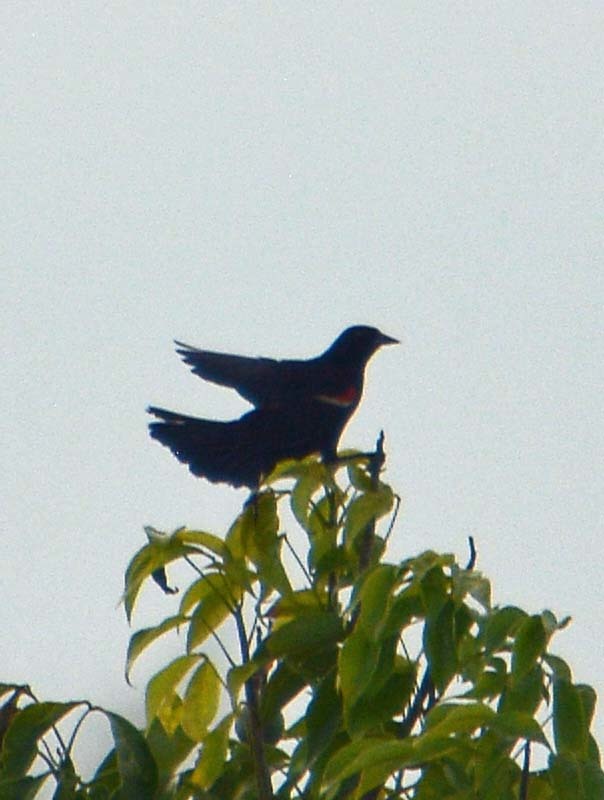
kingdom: Animalia
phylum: Chordata
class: Aves
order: Passeriformes
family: Icteridae
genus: Agelaius
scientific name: Agelaius phoeniceus
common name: Red-winged blackbird
